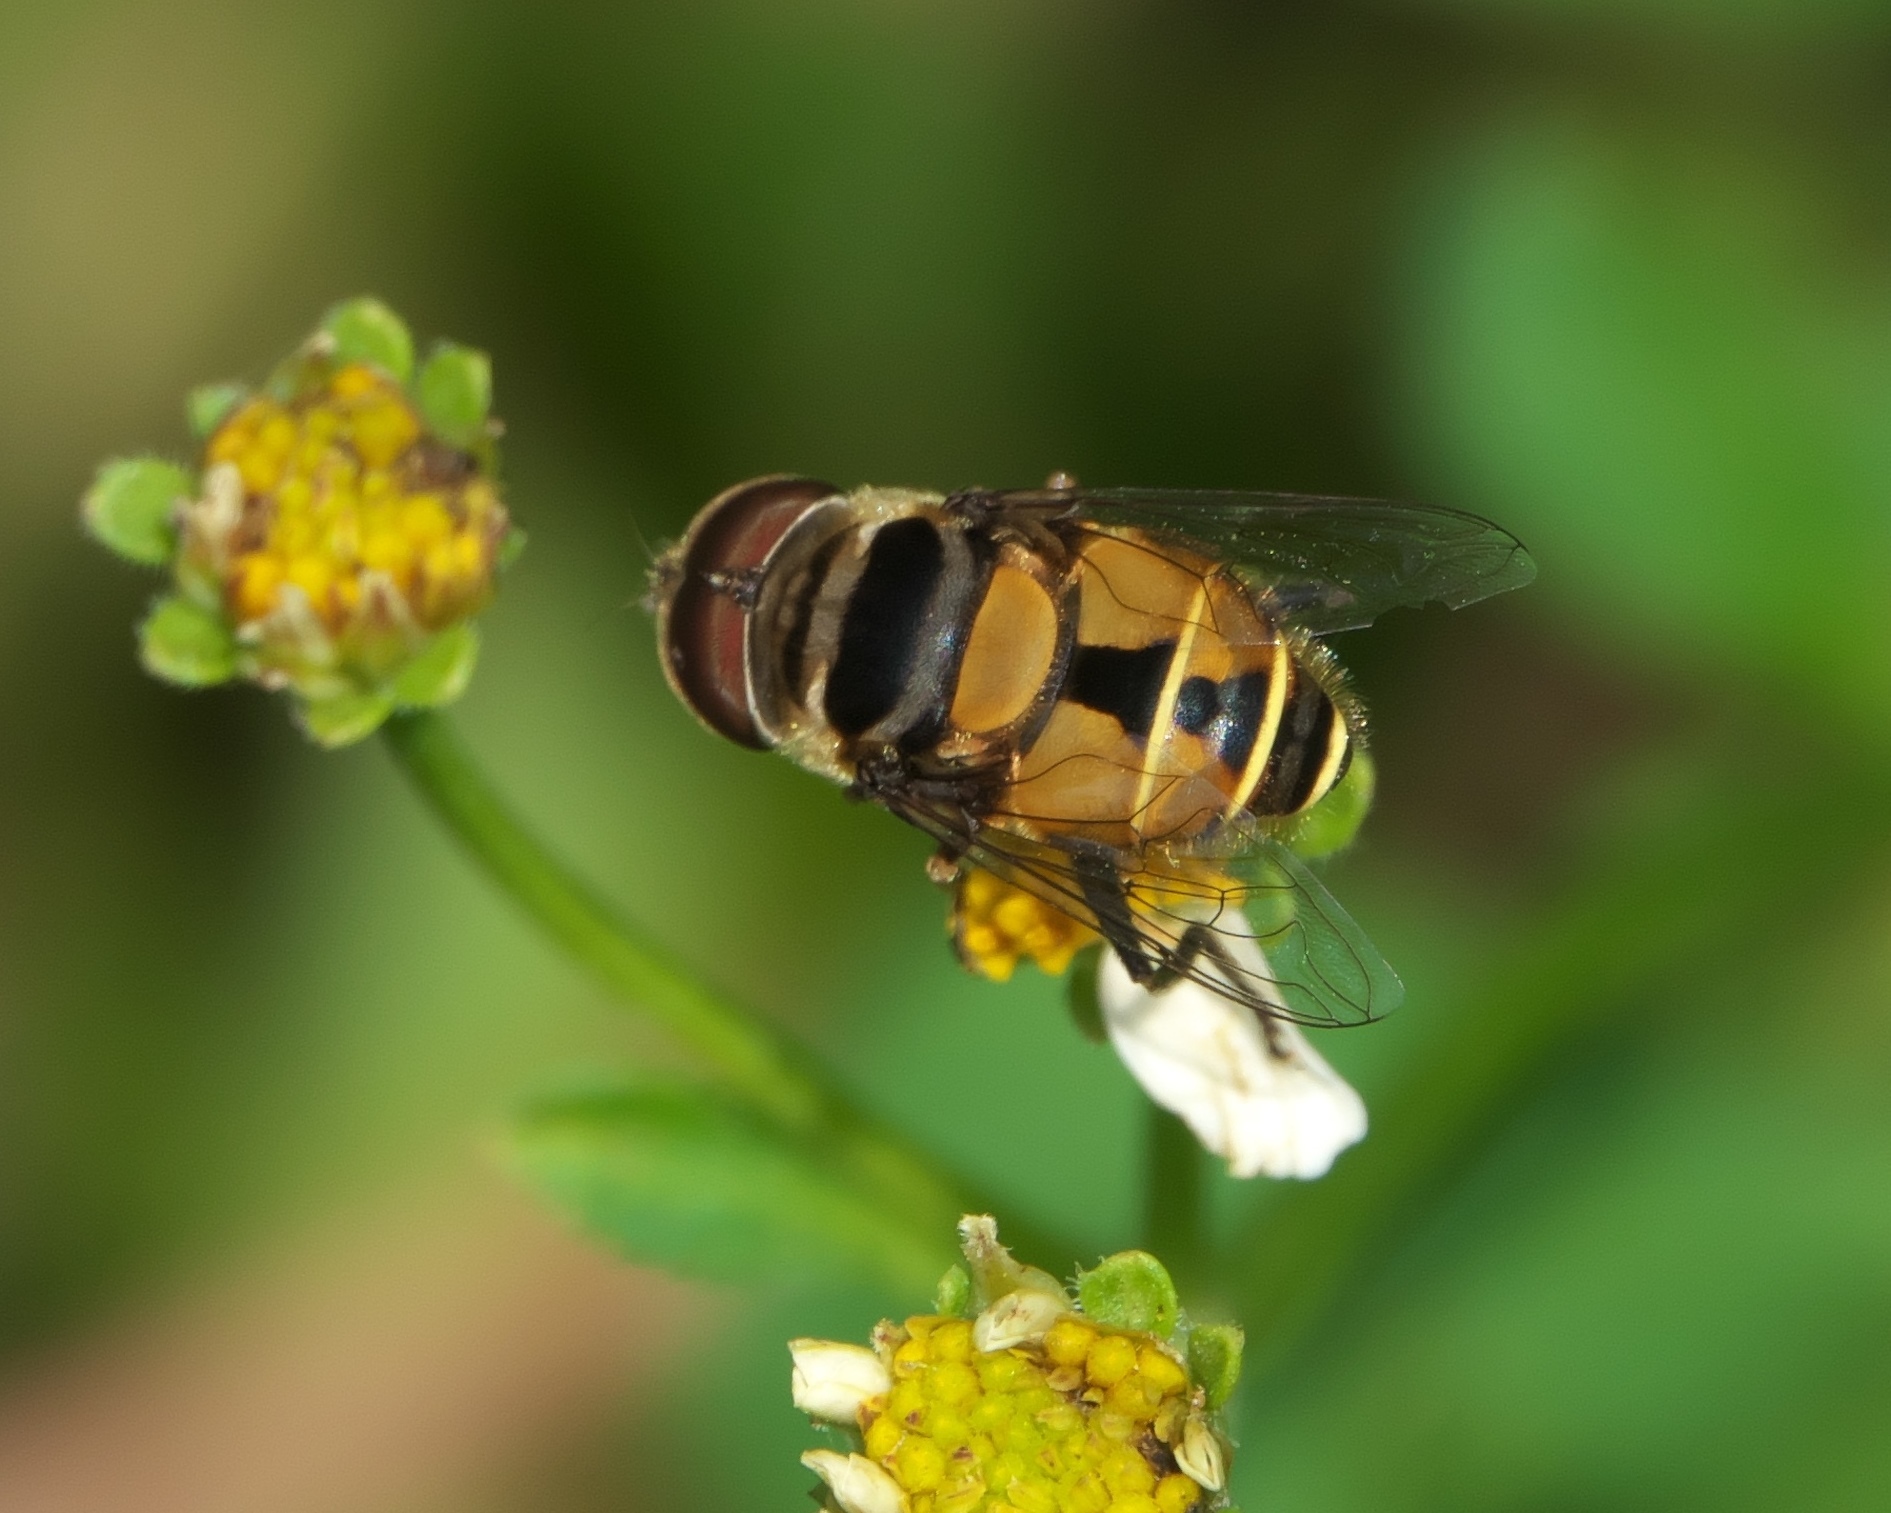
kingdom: Animalia
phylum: Arthropoda
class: Insecta
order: Diptera
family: Syrphidae
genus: Palpada
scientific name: Palpada agrorum
